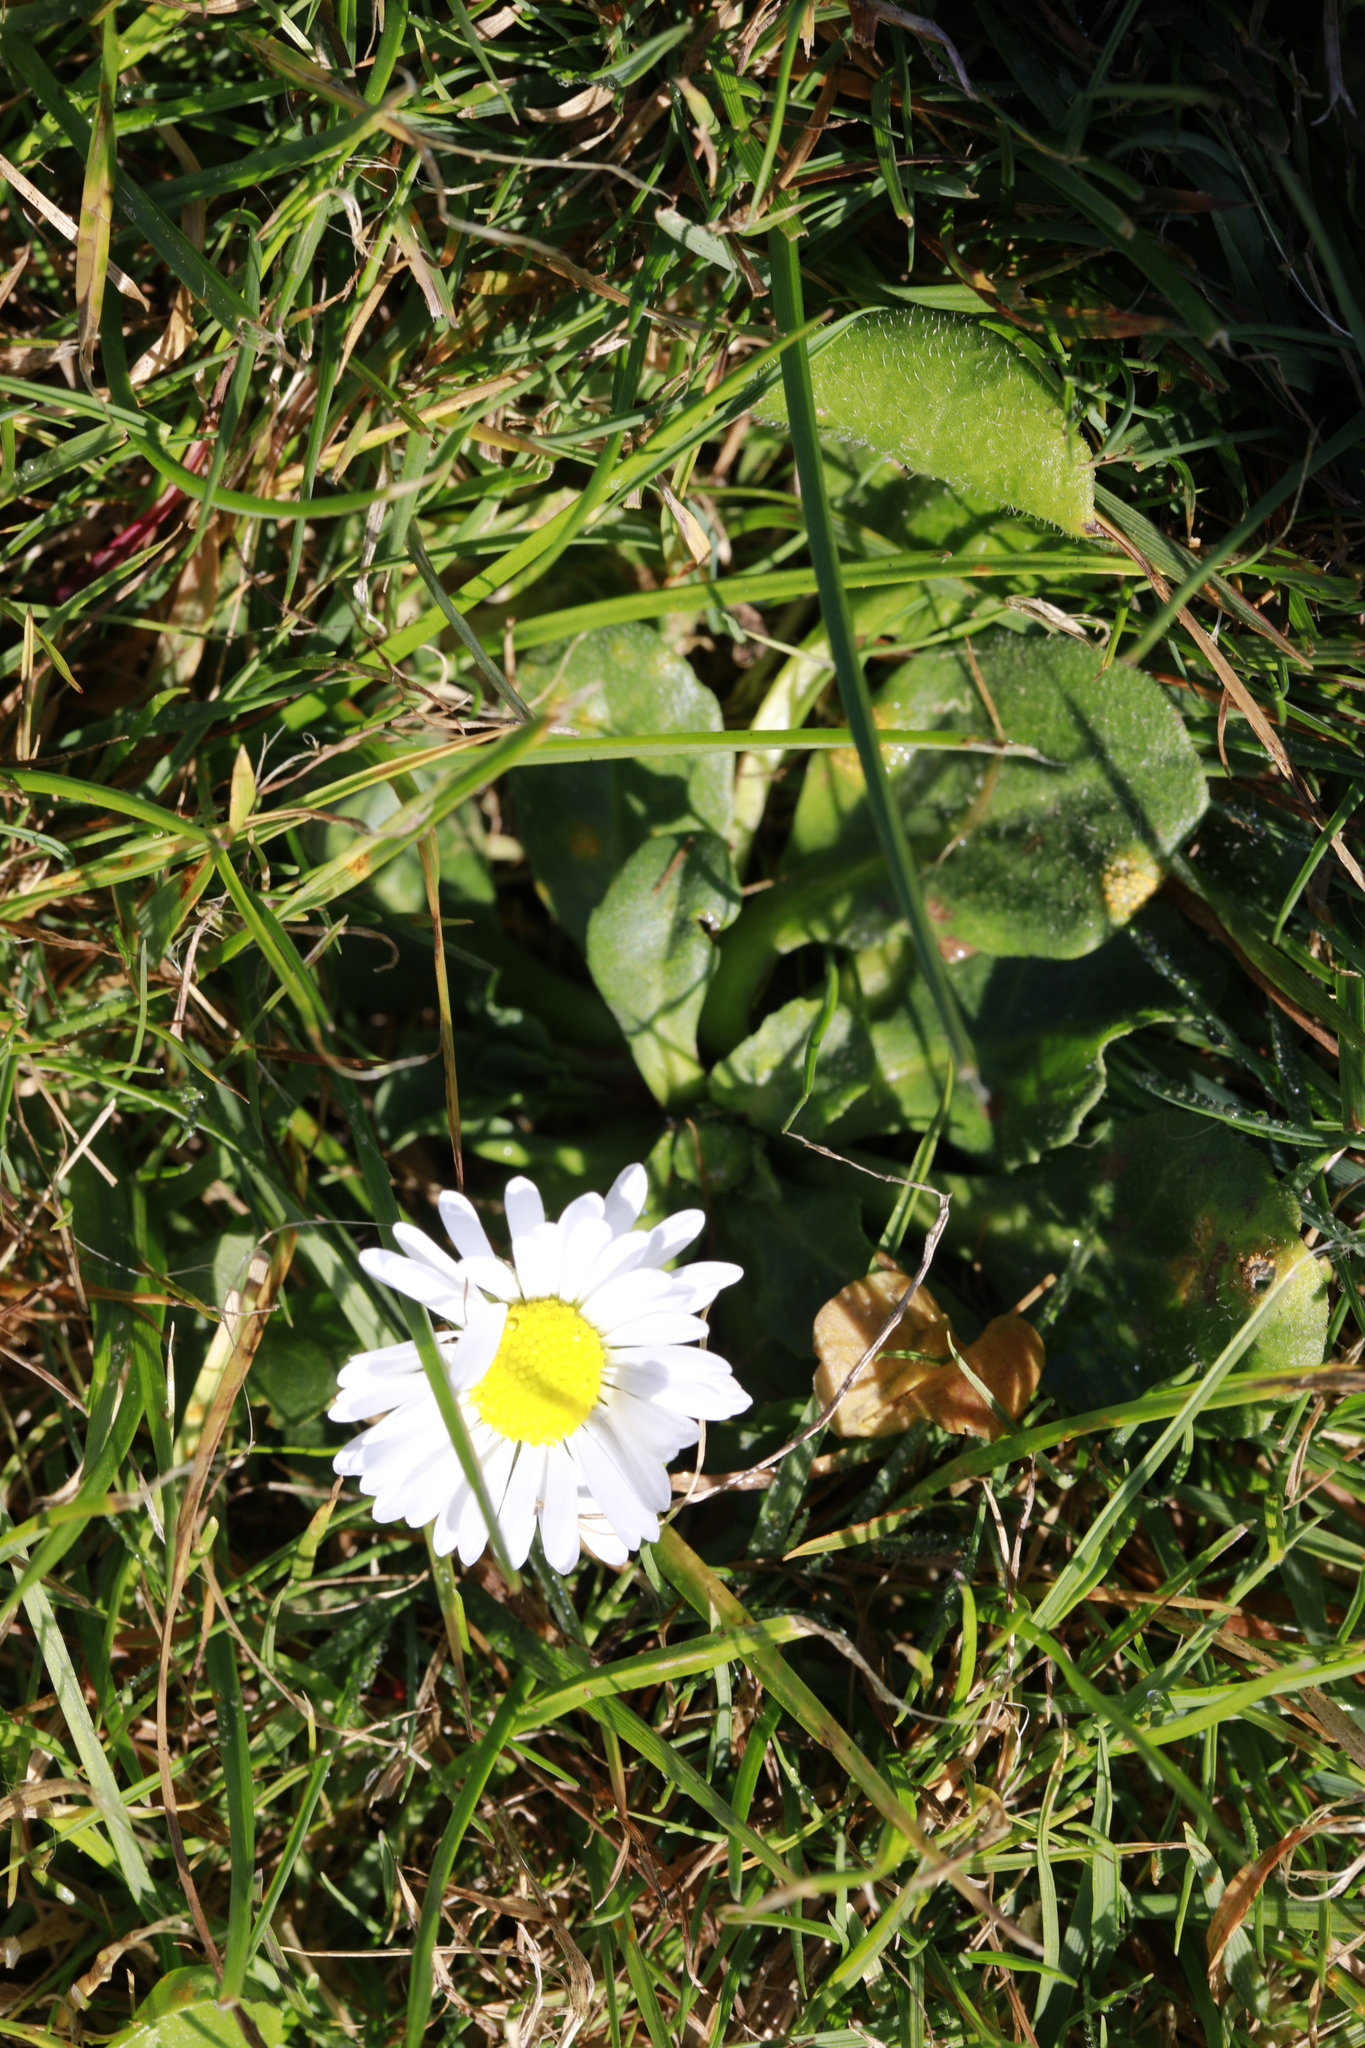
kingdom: Plantae
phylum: Tracheophyta
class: Magnoliopsida
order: Asterales
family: Asteraceae
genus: Bellis
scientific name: Bellis perennis
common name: Lawndaisy
